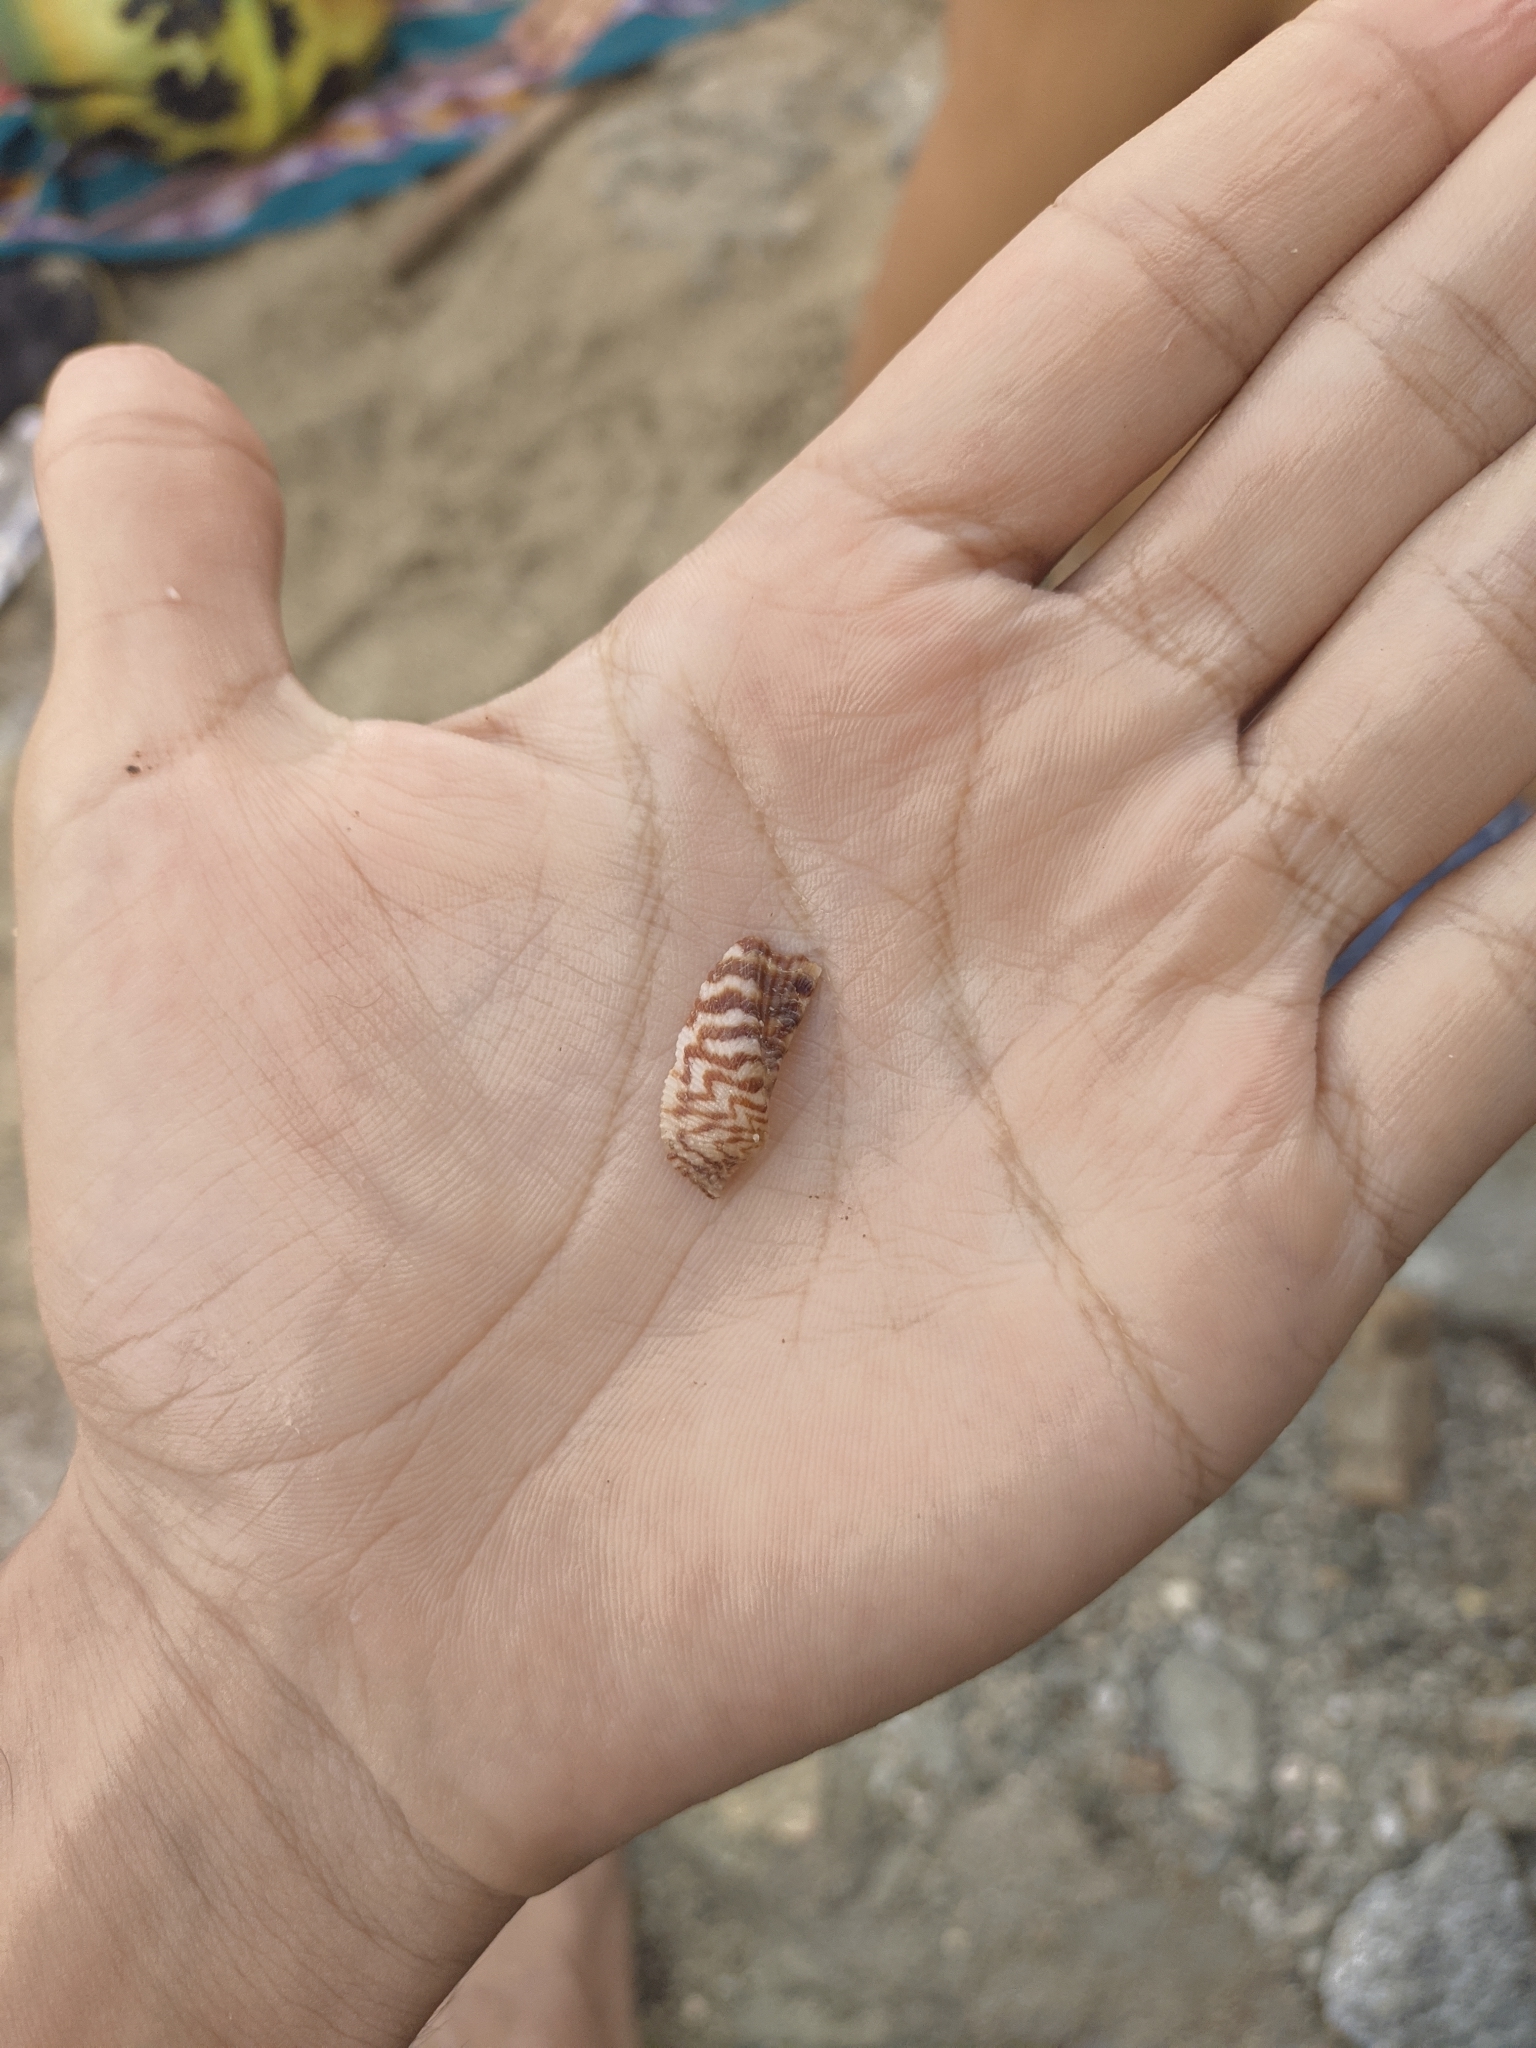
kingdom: Animalia
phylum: Mollusca
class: Bivalvia
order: Arcida
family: Arcidae
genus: Arca
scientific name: Arca zebra
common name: Atlantic turkey wing
